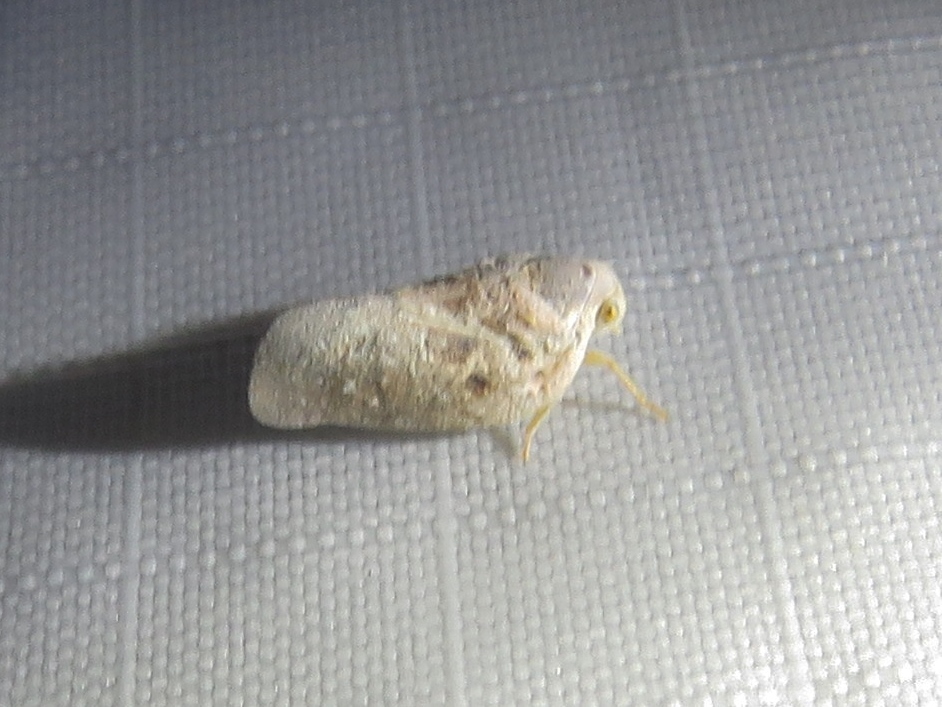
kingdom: Animalia
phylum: Arthropoda
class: Insecta
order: Hemiptera
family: Flatidae
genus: Metcalfa
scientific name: Metcalfa pruinosa
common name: Citrus flatid planthopper
